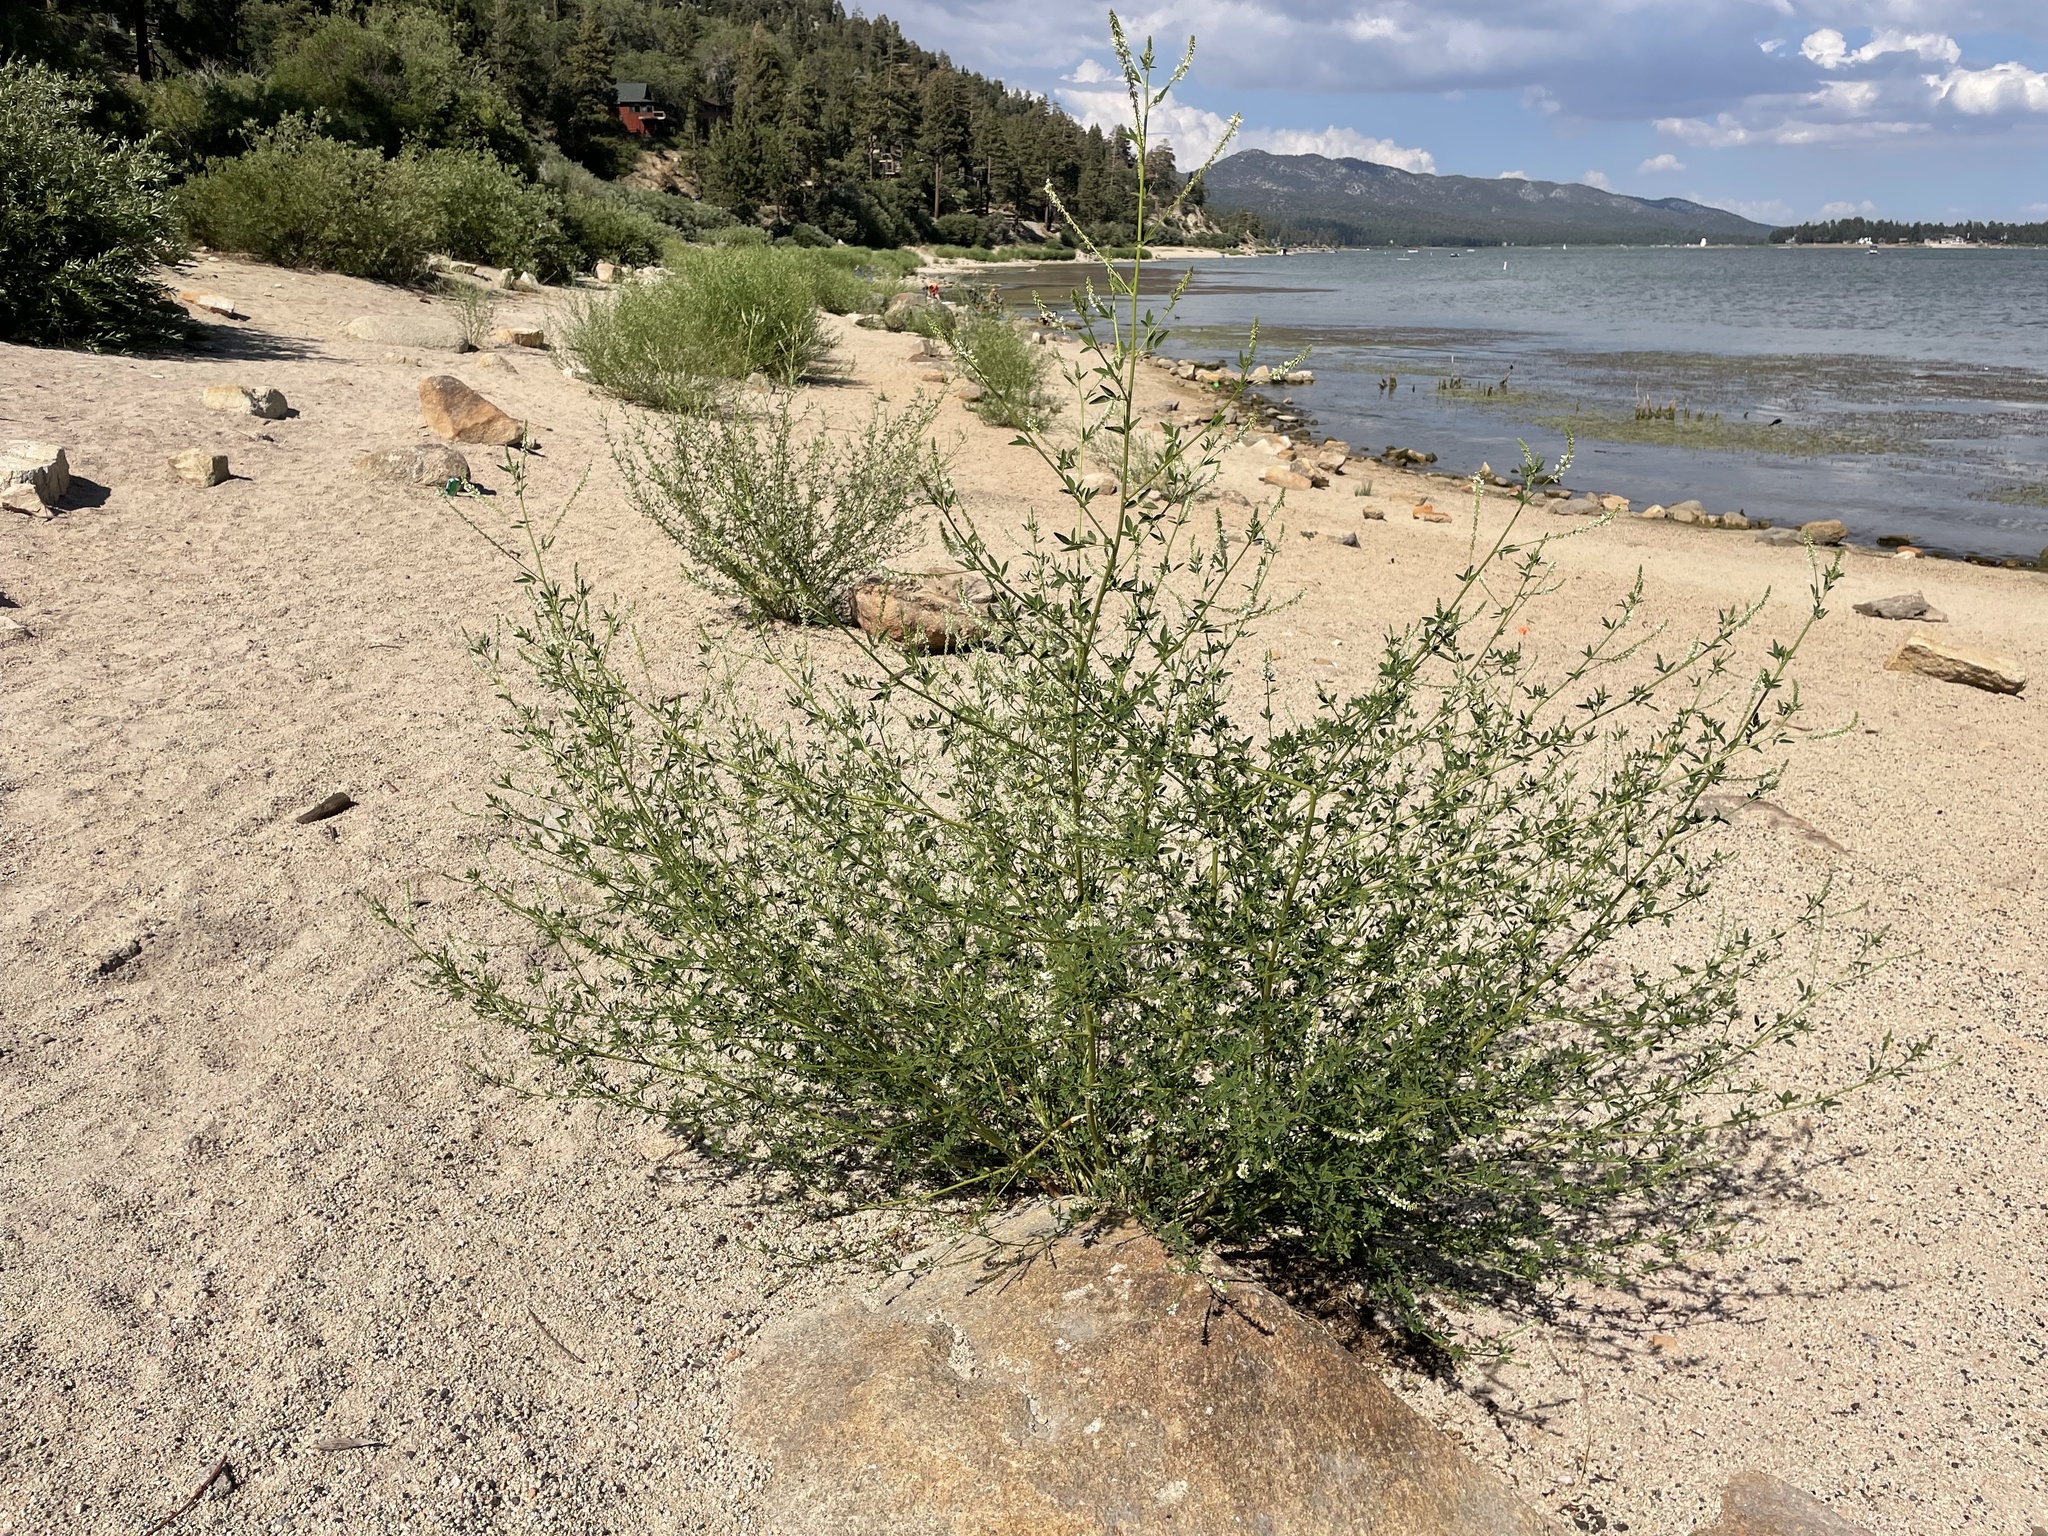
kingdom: Plantae
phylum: Tracheophyta
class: Magnoliopsida
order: Fabales
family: Fabaceae
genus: Melilotus
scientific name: Melilotus albus
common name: White melilot
